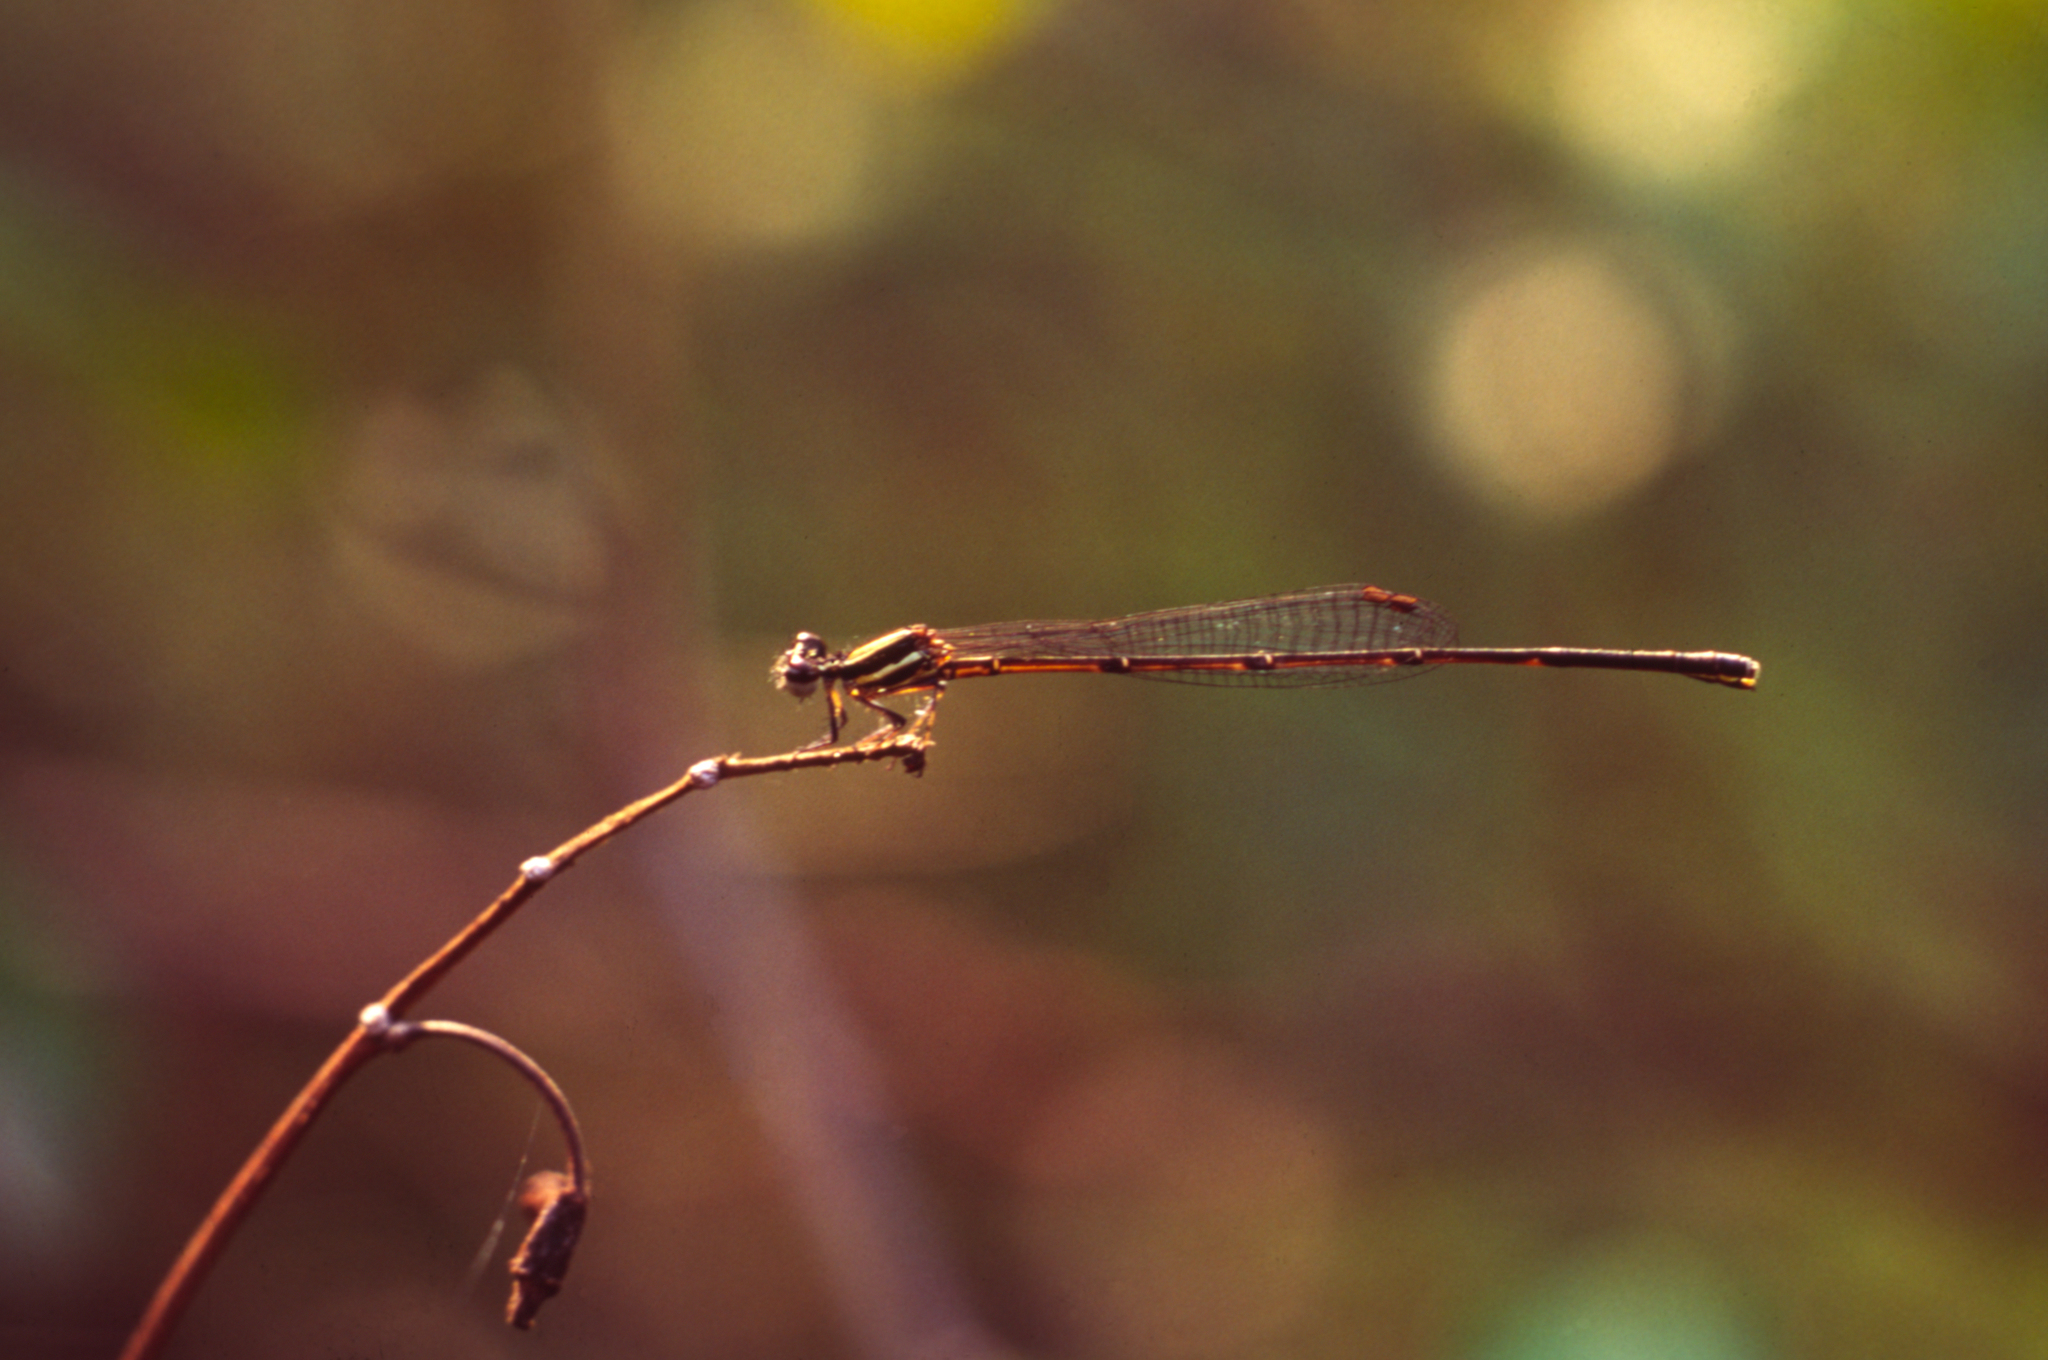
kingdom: Animalia
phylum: Arthropoda
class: Insecta
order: Odonata
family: Platycnemididae
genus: Prodasineura
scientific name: Prodasineura autumnalis
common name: Black threadtail
